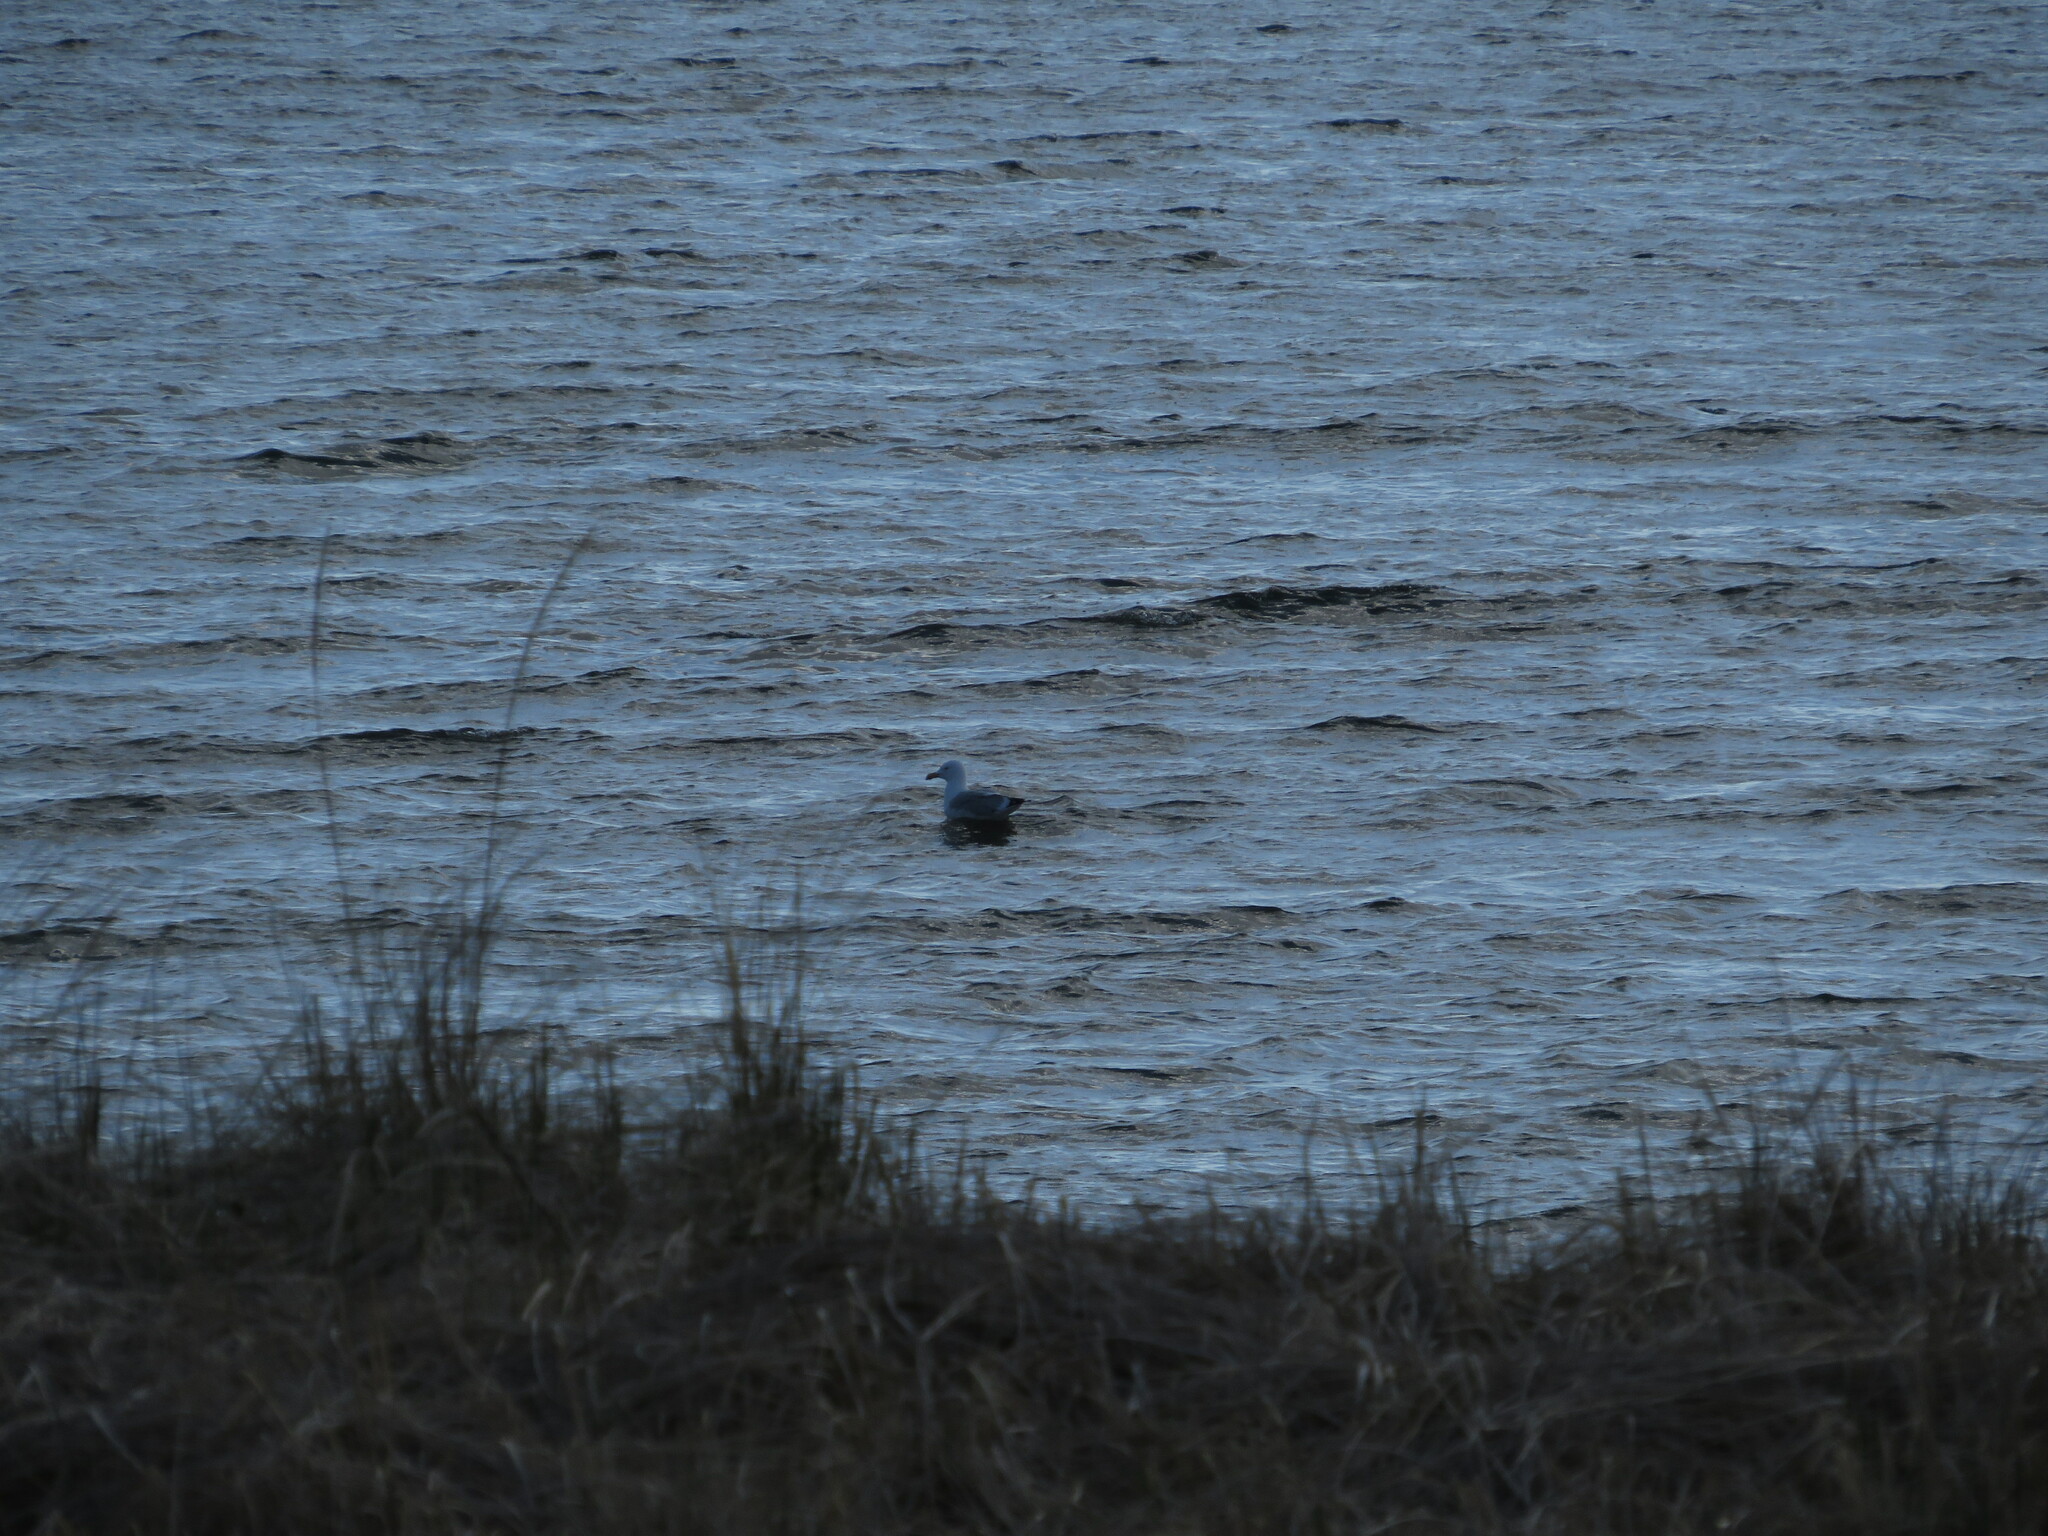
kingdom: Animalia
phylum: Chordata
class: Aves
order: Charadriiformes
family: Laridae
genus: Larus
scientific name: Larus argentatus
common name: Herring gull
